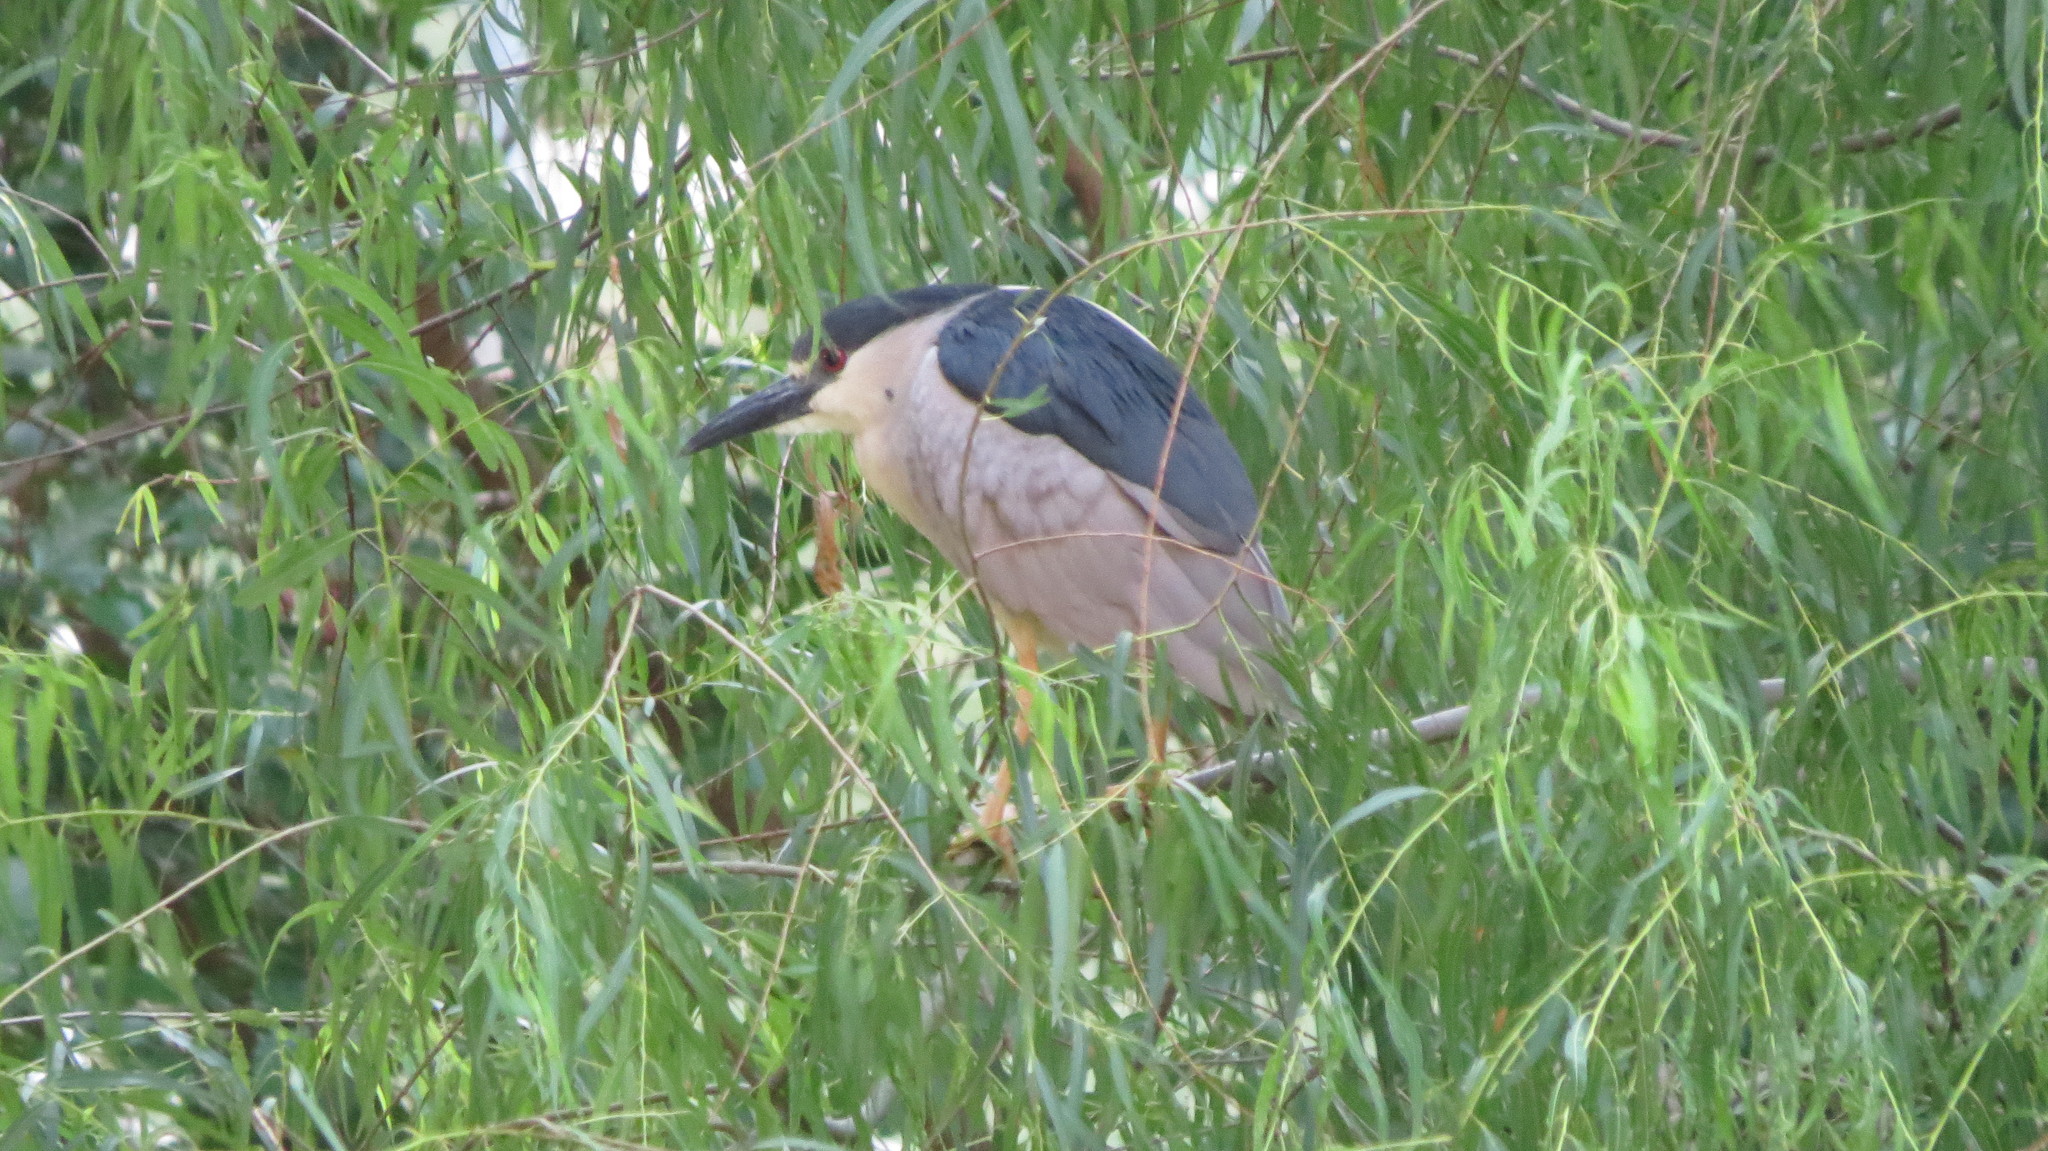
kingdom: Animalia
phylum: Chordata
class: Aves
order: Pelecaniformes
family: Ardeidae
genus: Nycticorax
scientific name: Nycticorax nycticorax
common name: Black-crowned night heron
